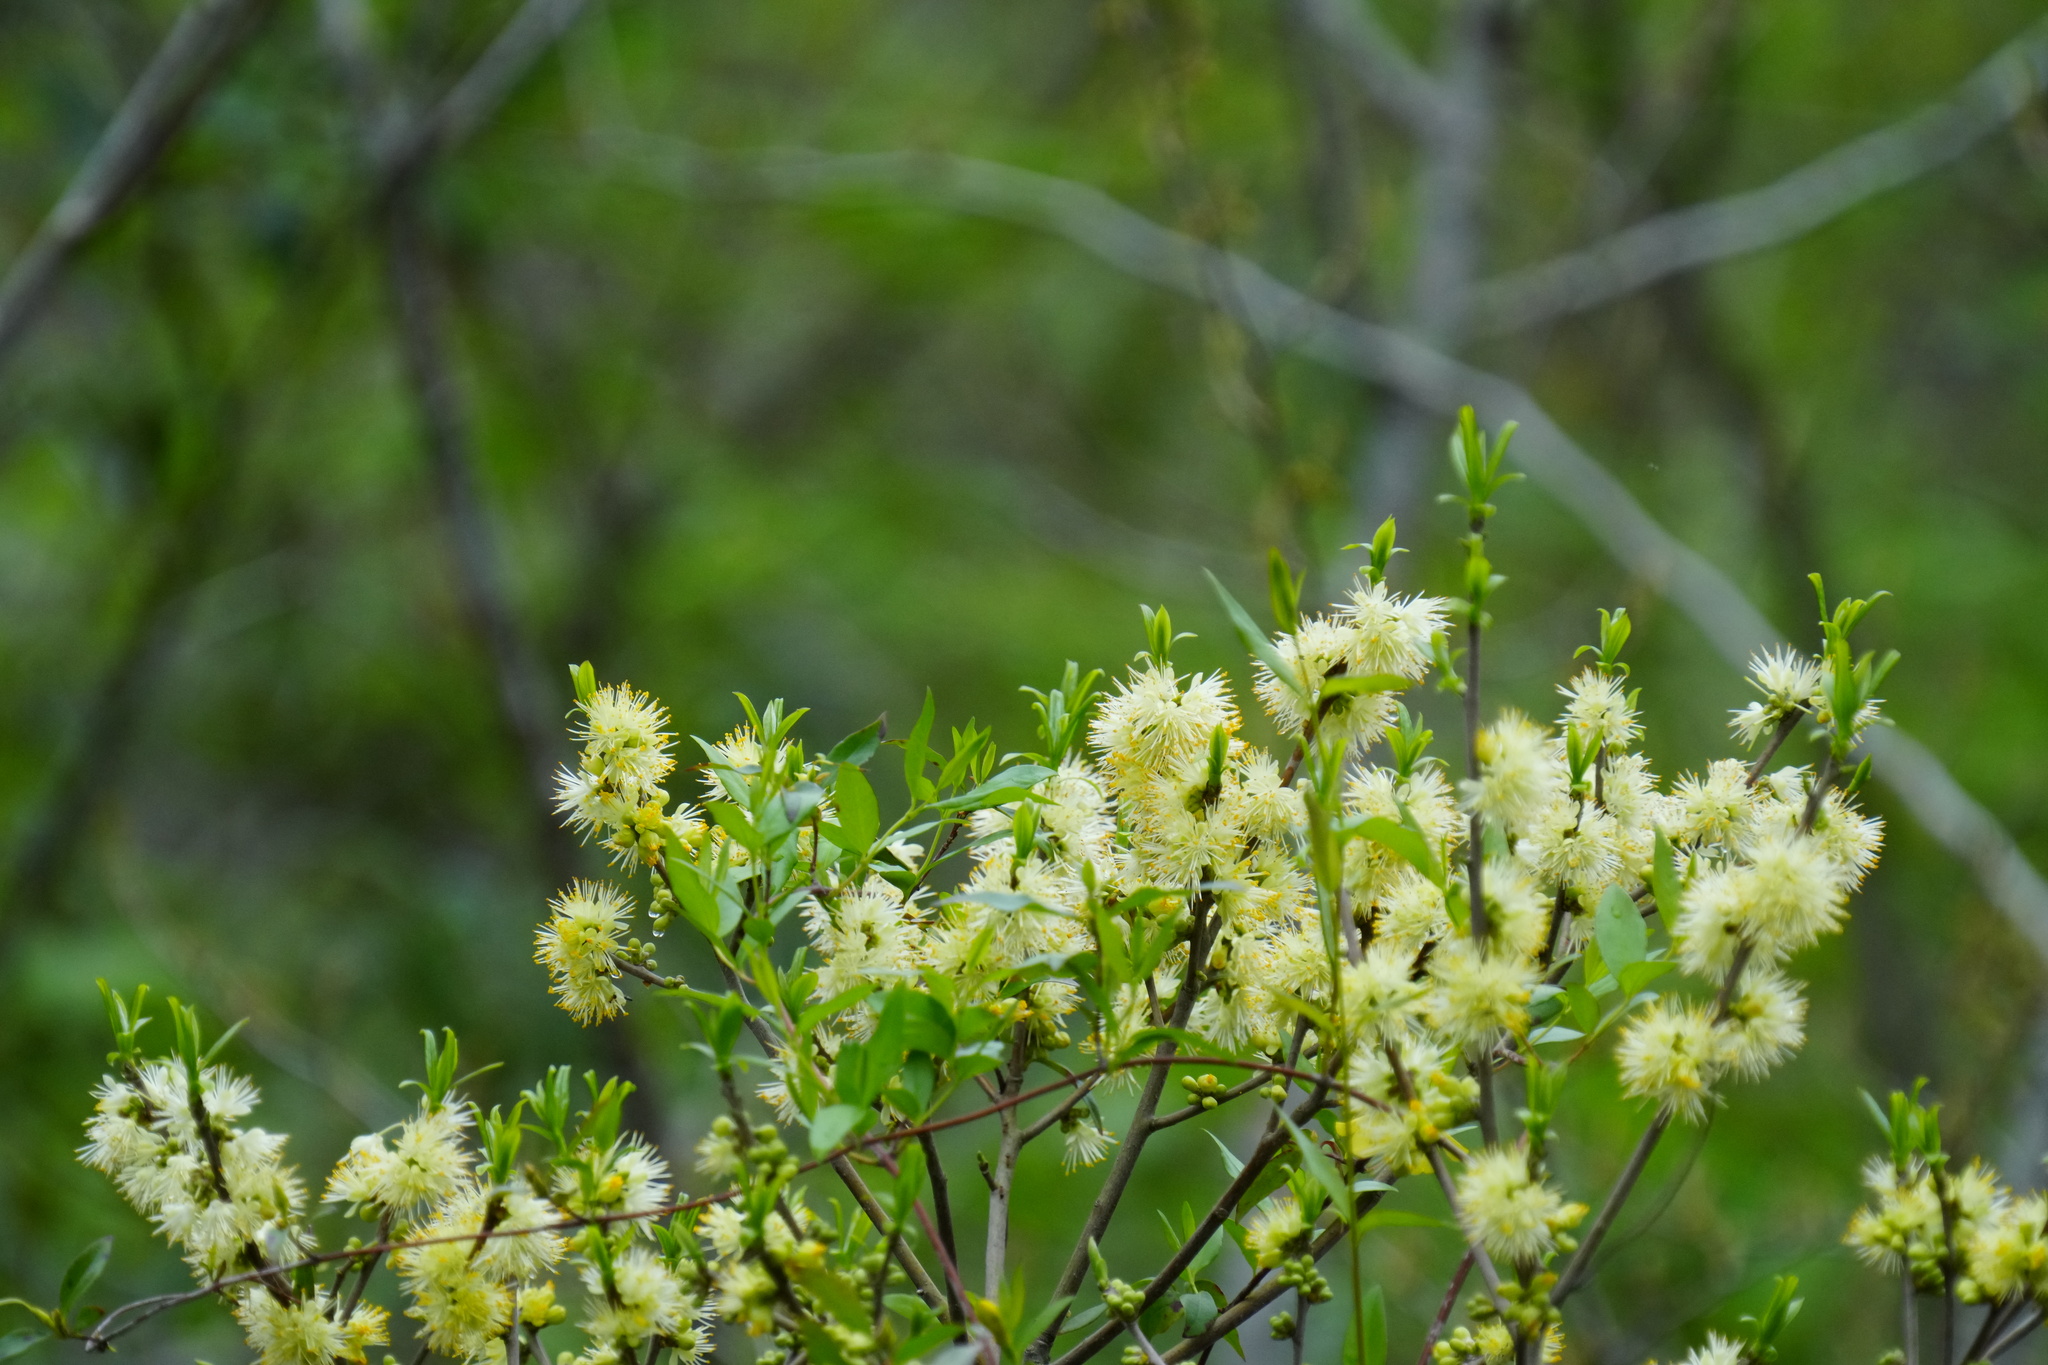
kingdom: Plantae
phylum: Tracheophyta
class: Magnoliopsida
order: Ericales
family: Symplocaceae
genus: Symplocos
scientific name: Symplocos tinctoria
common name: Horse-sugar
